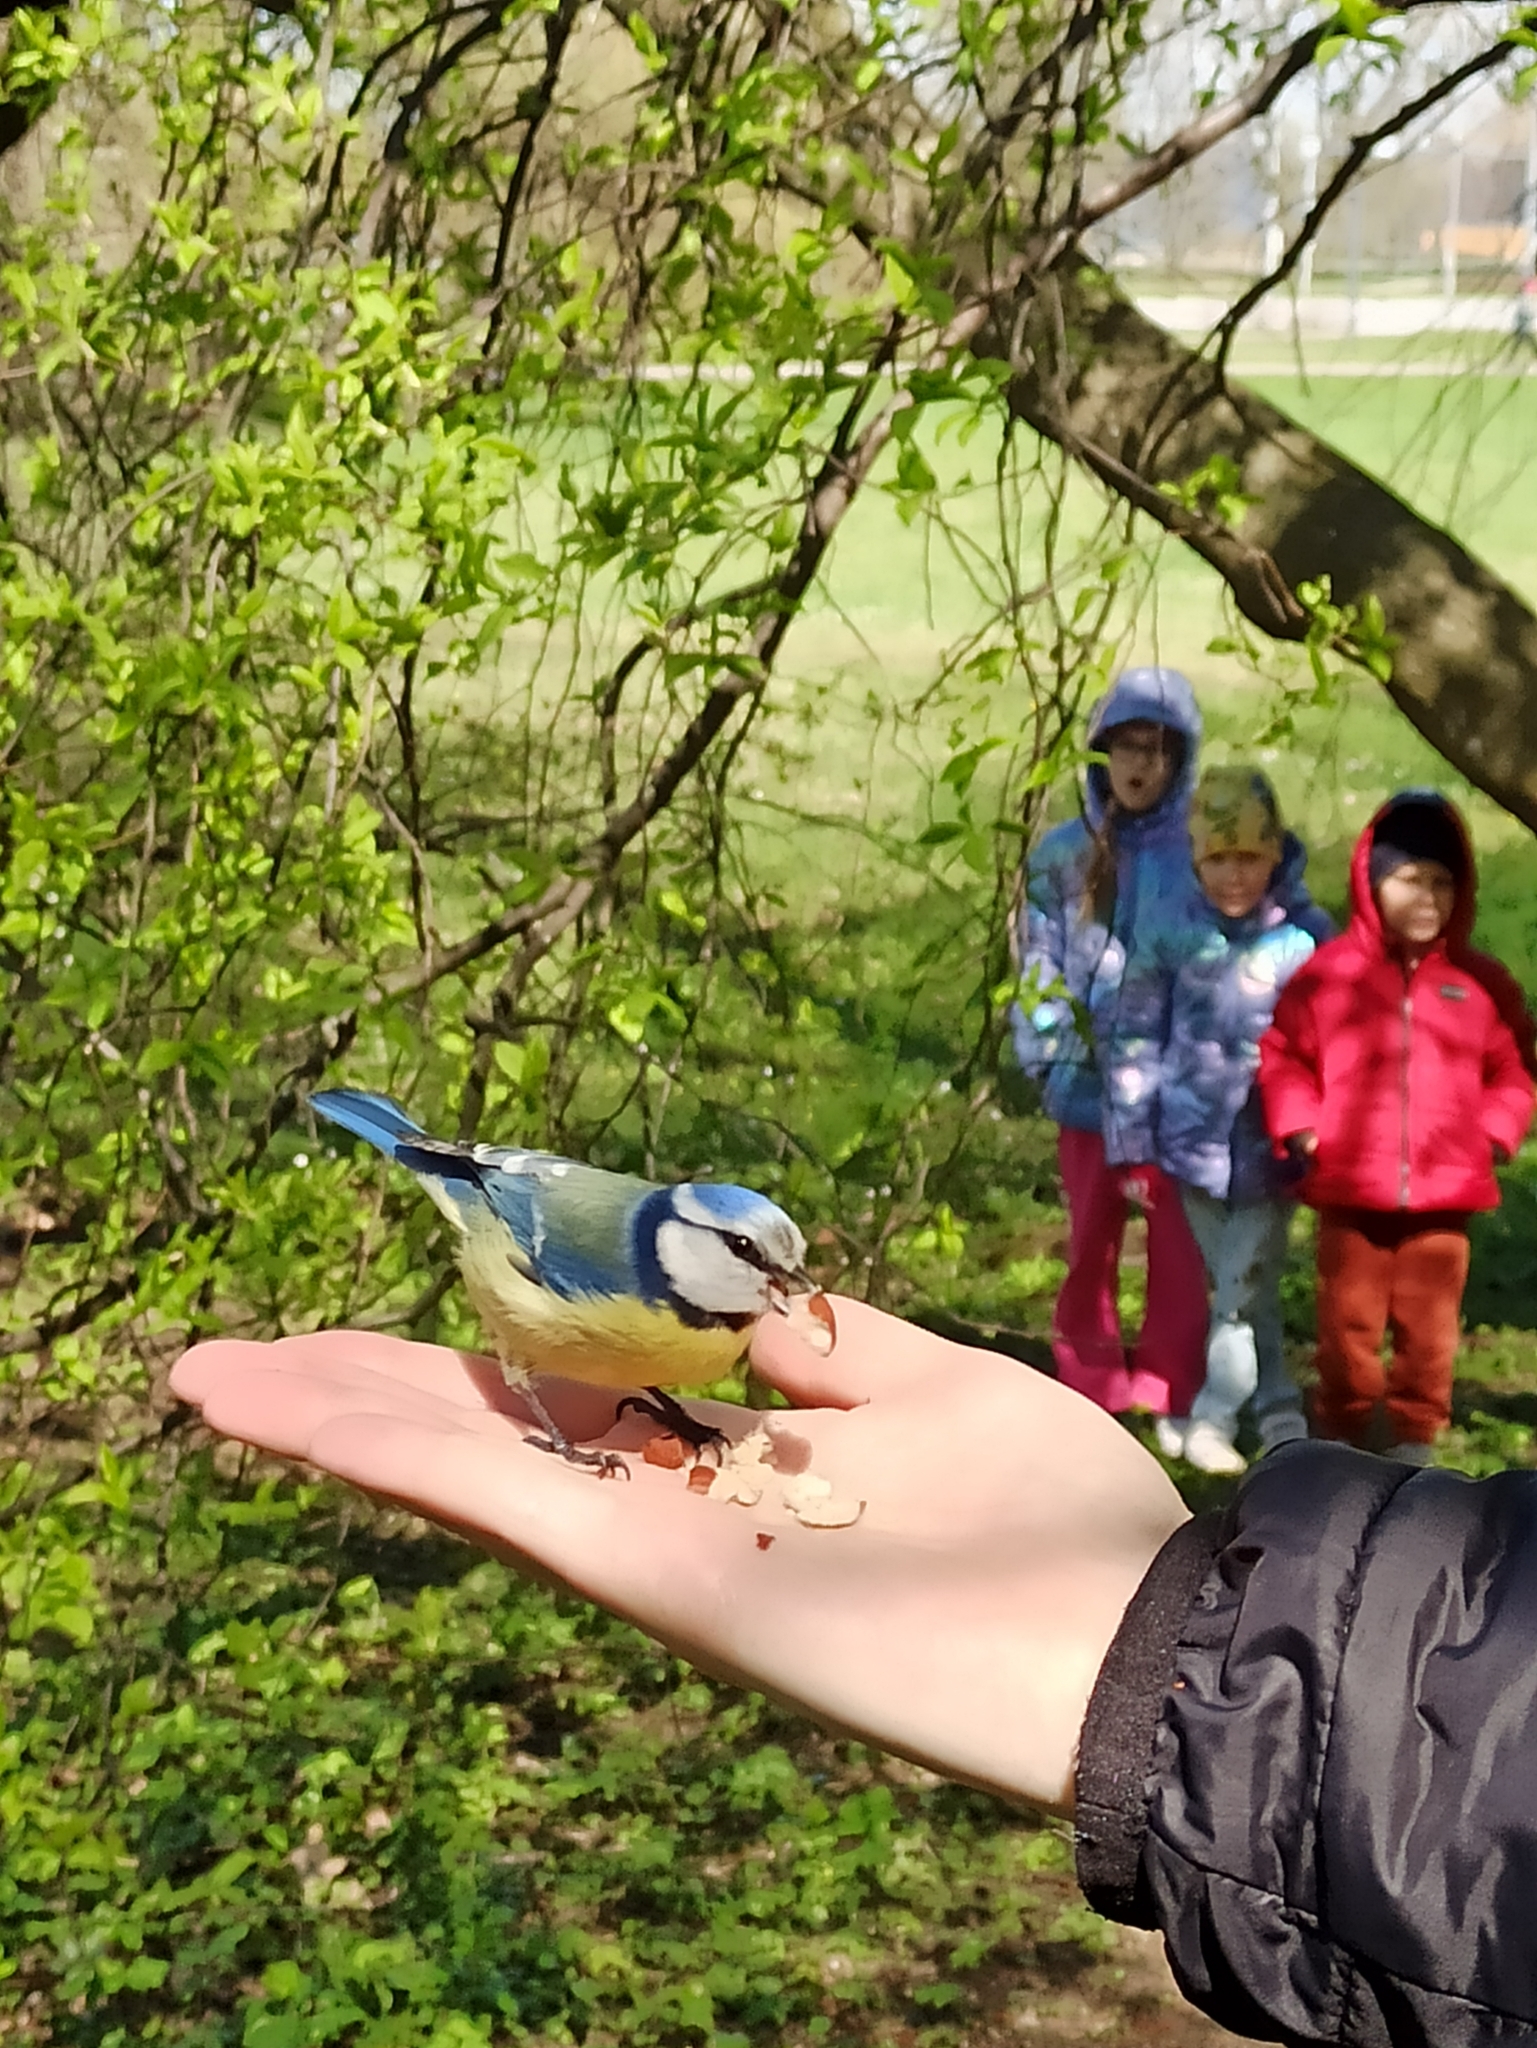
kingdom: Animalia
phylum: Chordata
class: Aves
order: Passeriformes
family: Paridae
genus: Cyanistes
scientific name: Cyanistes caeruleus
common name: Eurasian blue tit
